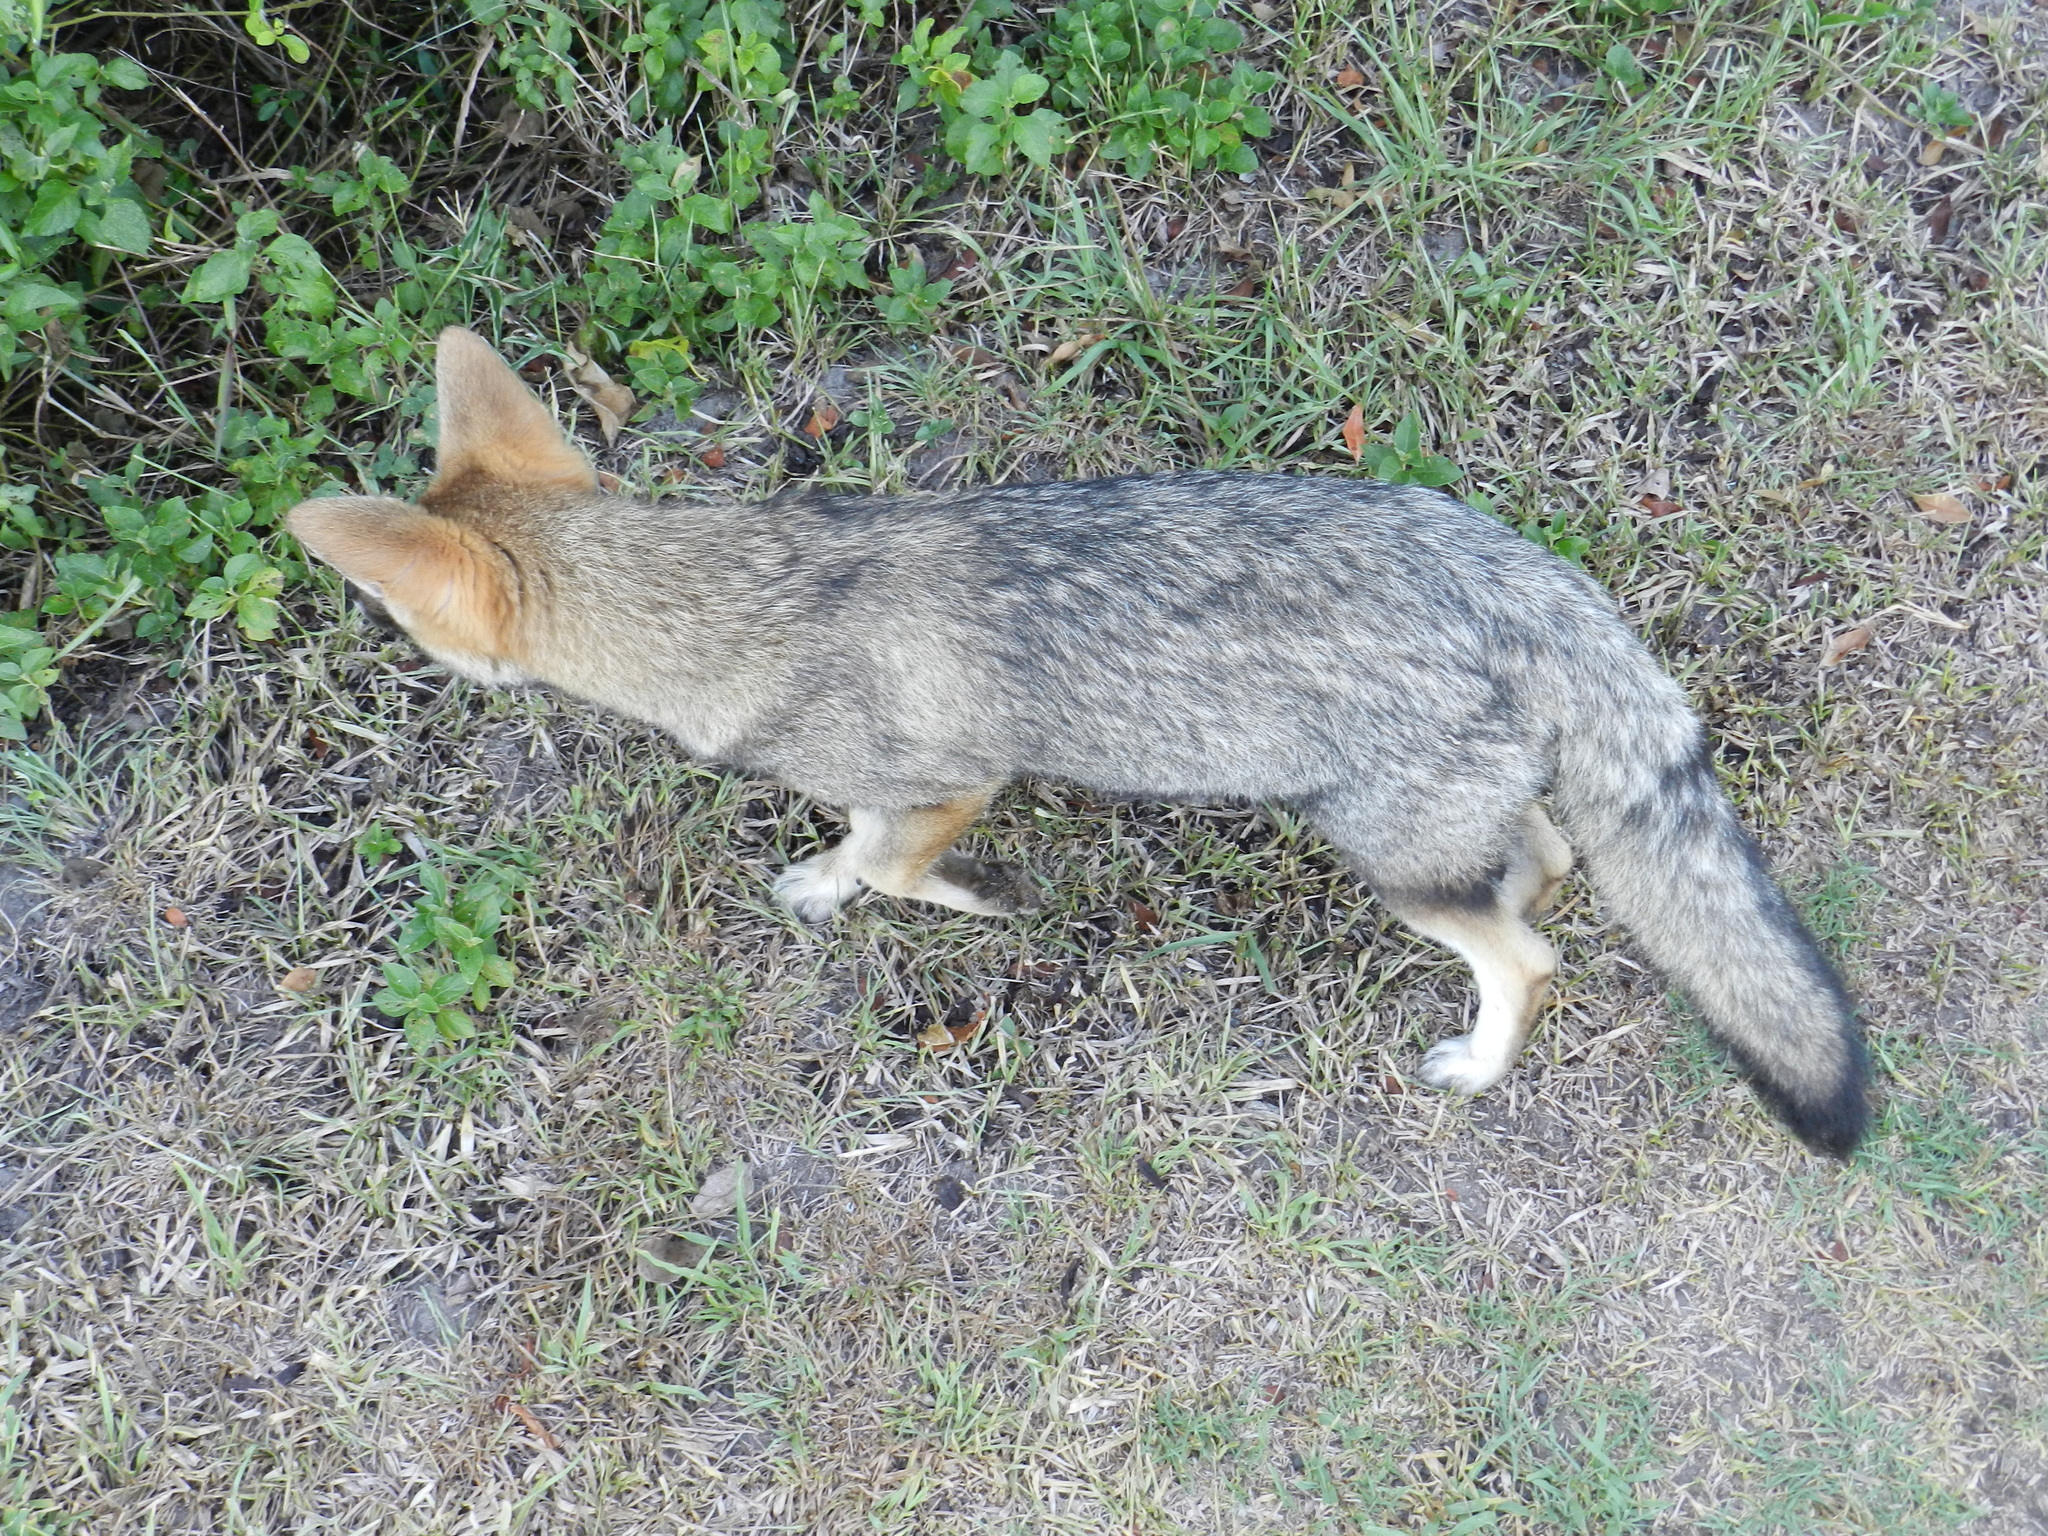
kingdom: Animalia
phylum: Chordata
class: Mammalia
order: Carnivora
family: Canidae
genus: Lycalopex
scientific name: Lycalopex gymnocercus
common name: Pampas fox
